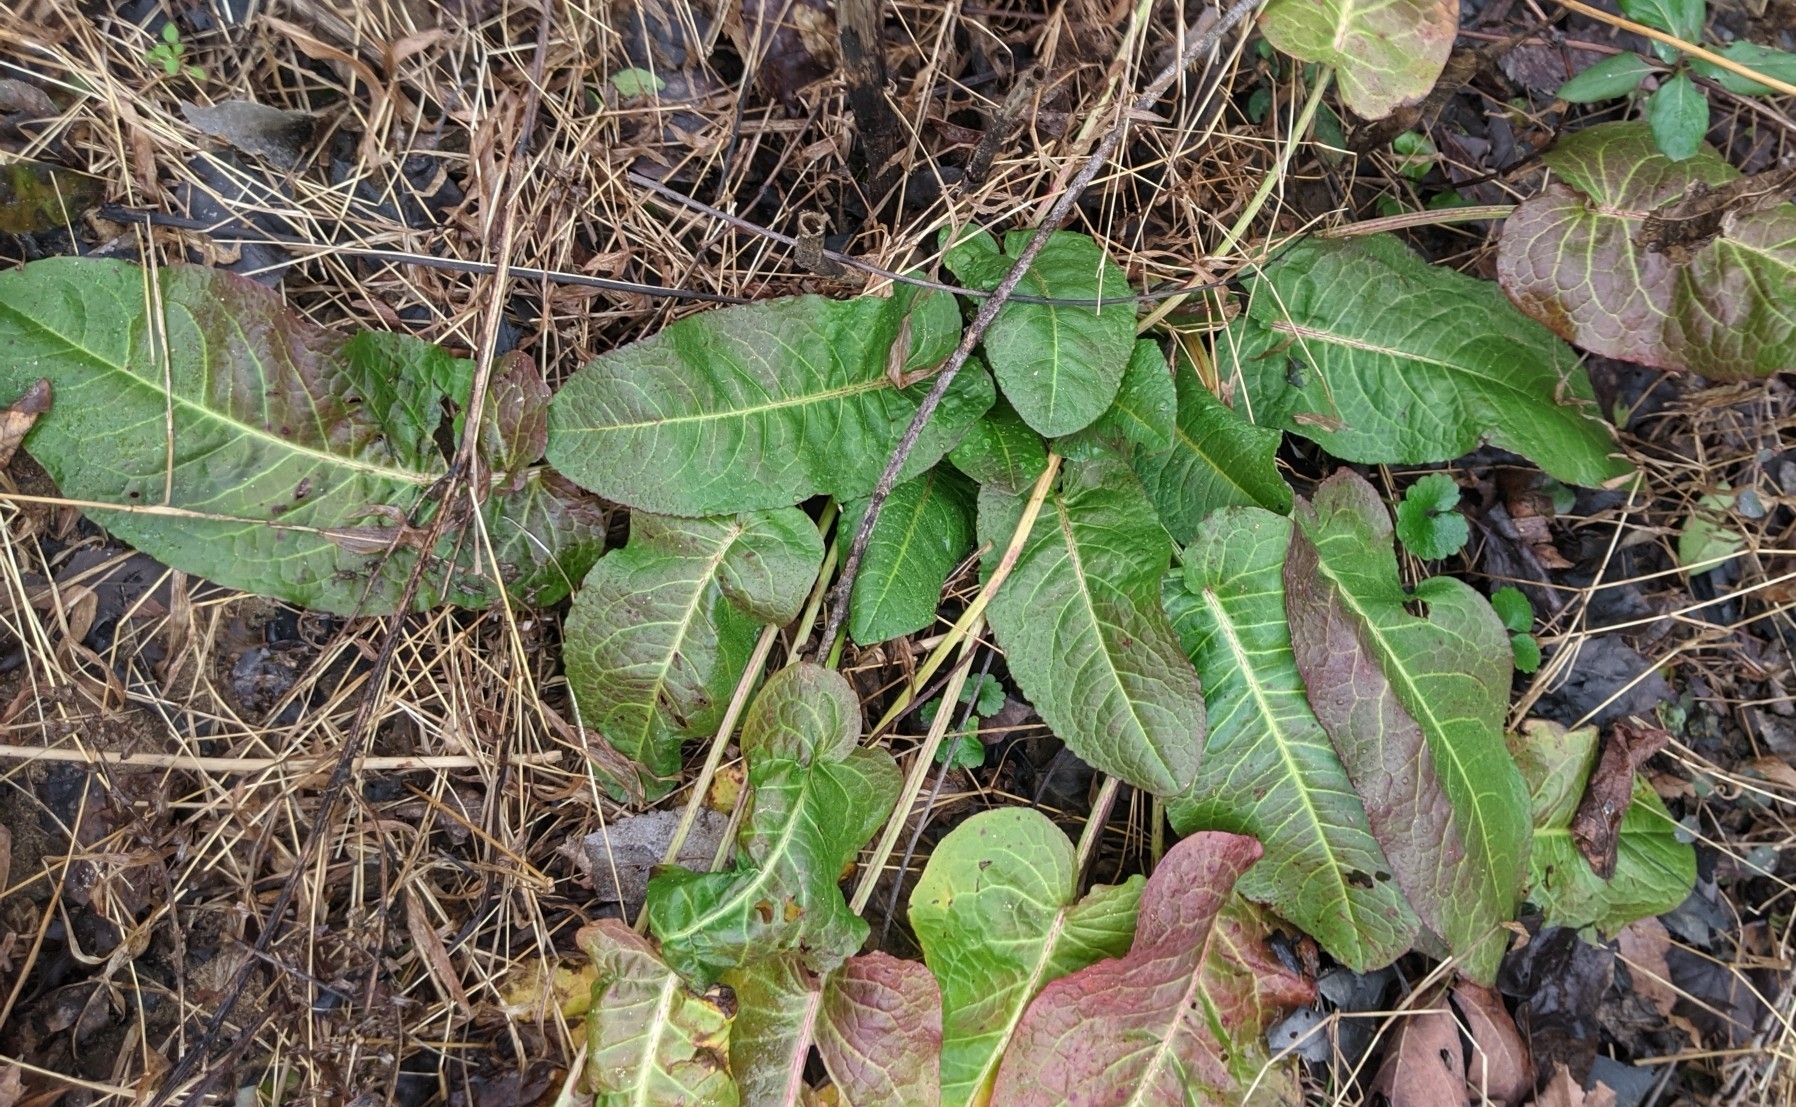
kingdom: Plantae
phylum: Tracheophyta
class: Magnoliopsida
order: Caryophyllales
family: Polygonaceae
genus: Rumex
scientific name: Rumex obtusifolius
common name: Bitter dock
